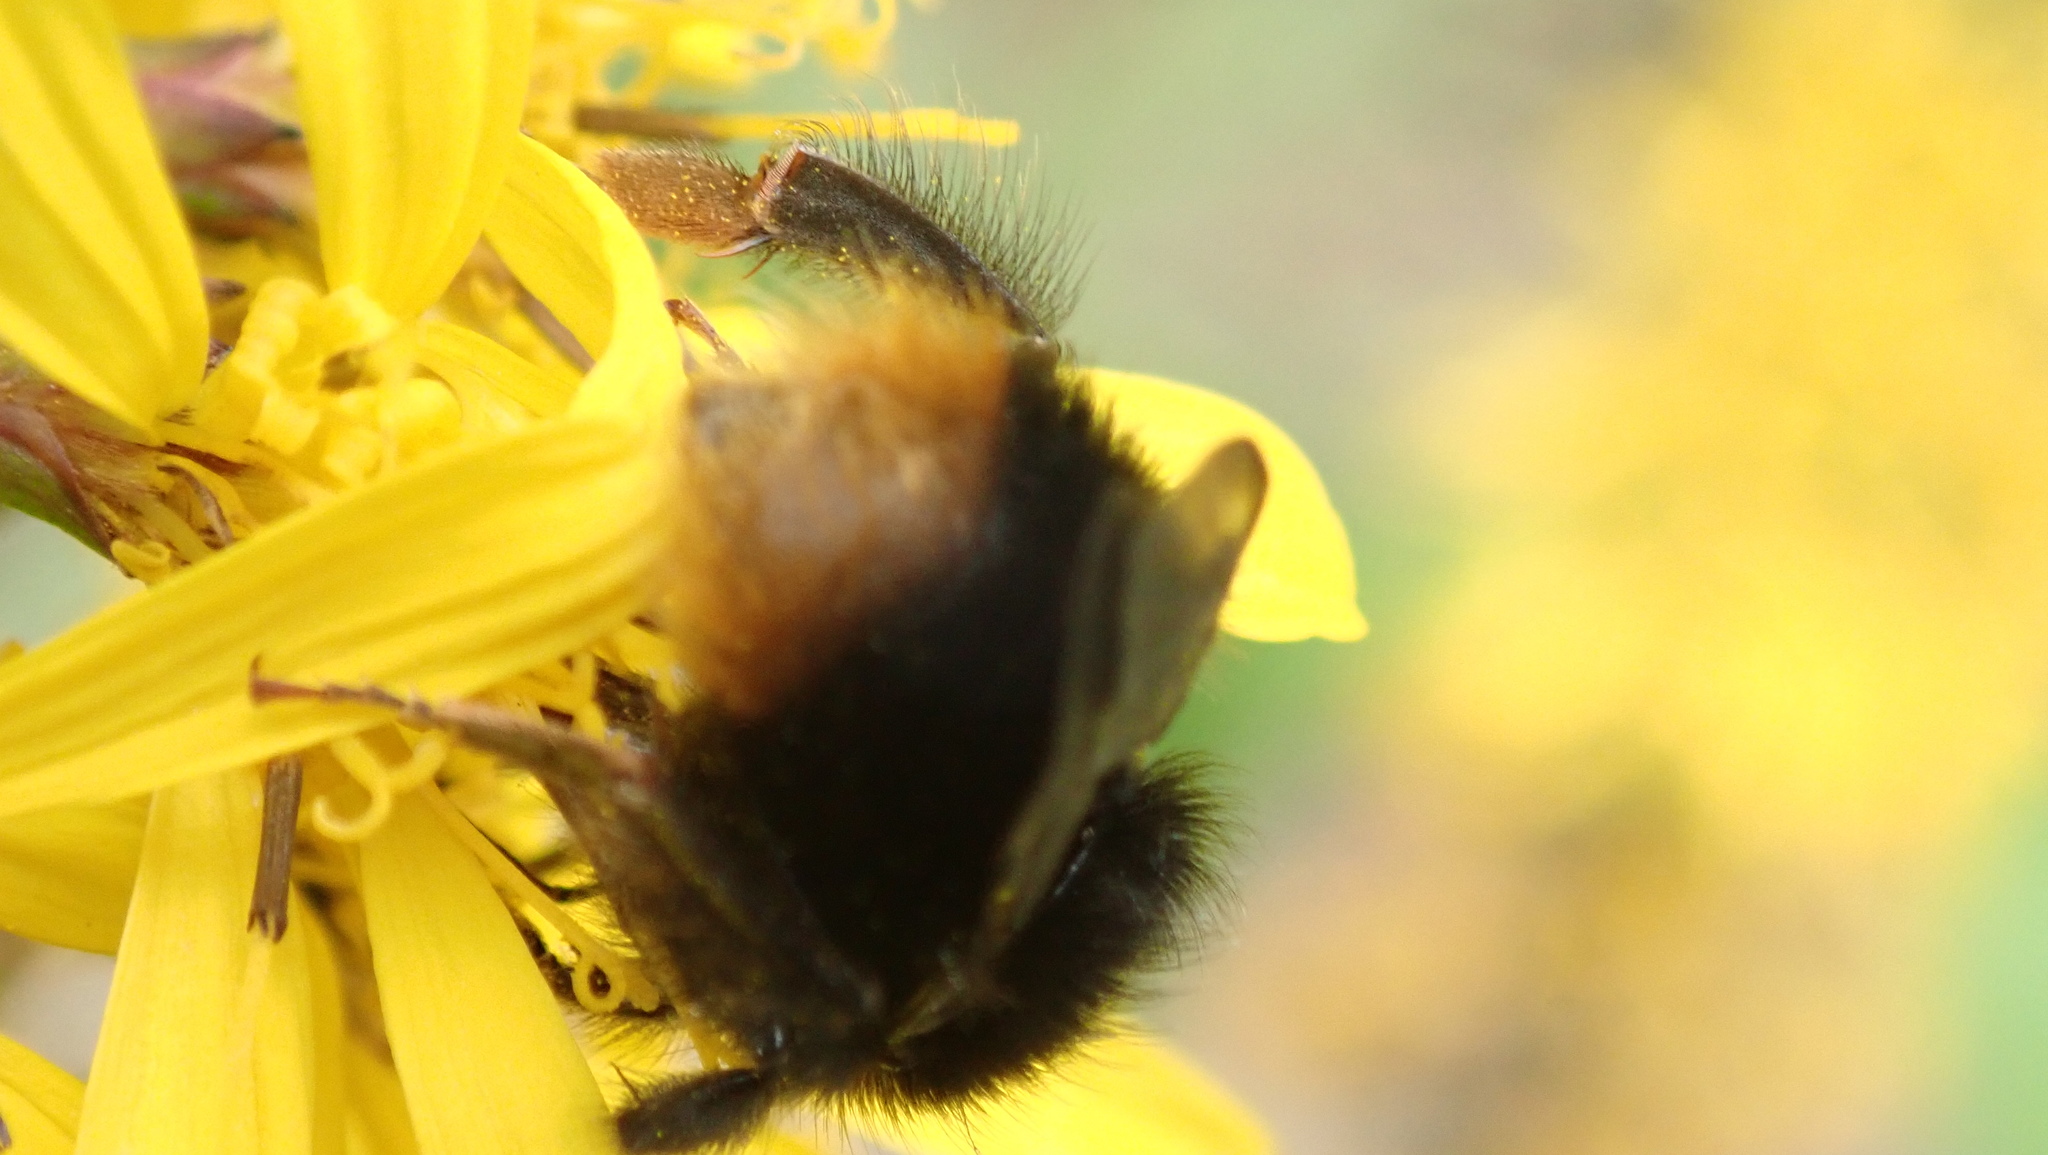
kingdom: Animalia
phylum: Arthropoda
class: Insecta
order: Hymenoptera
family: Apidae
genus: Bombus
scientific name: Bombus pratorum
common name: Early humble-bee
